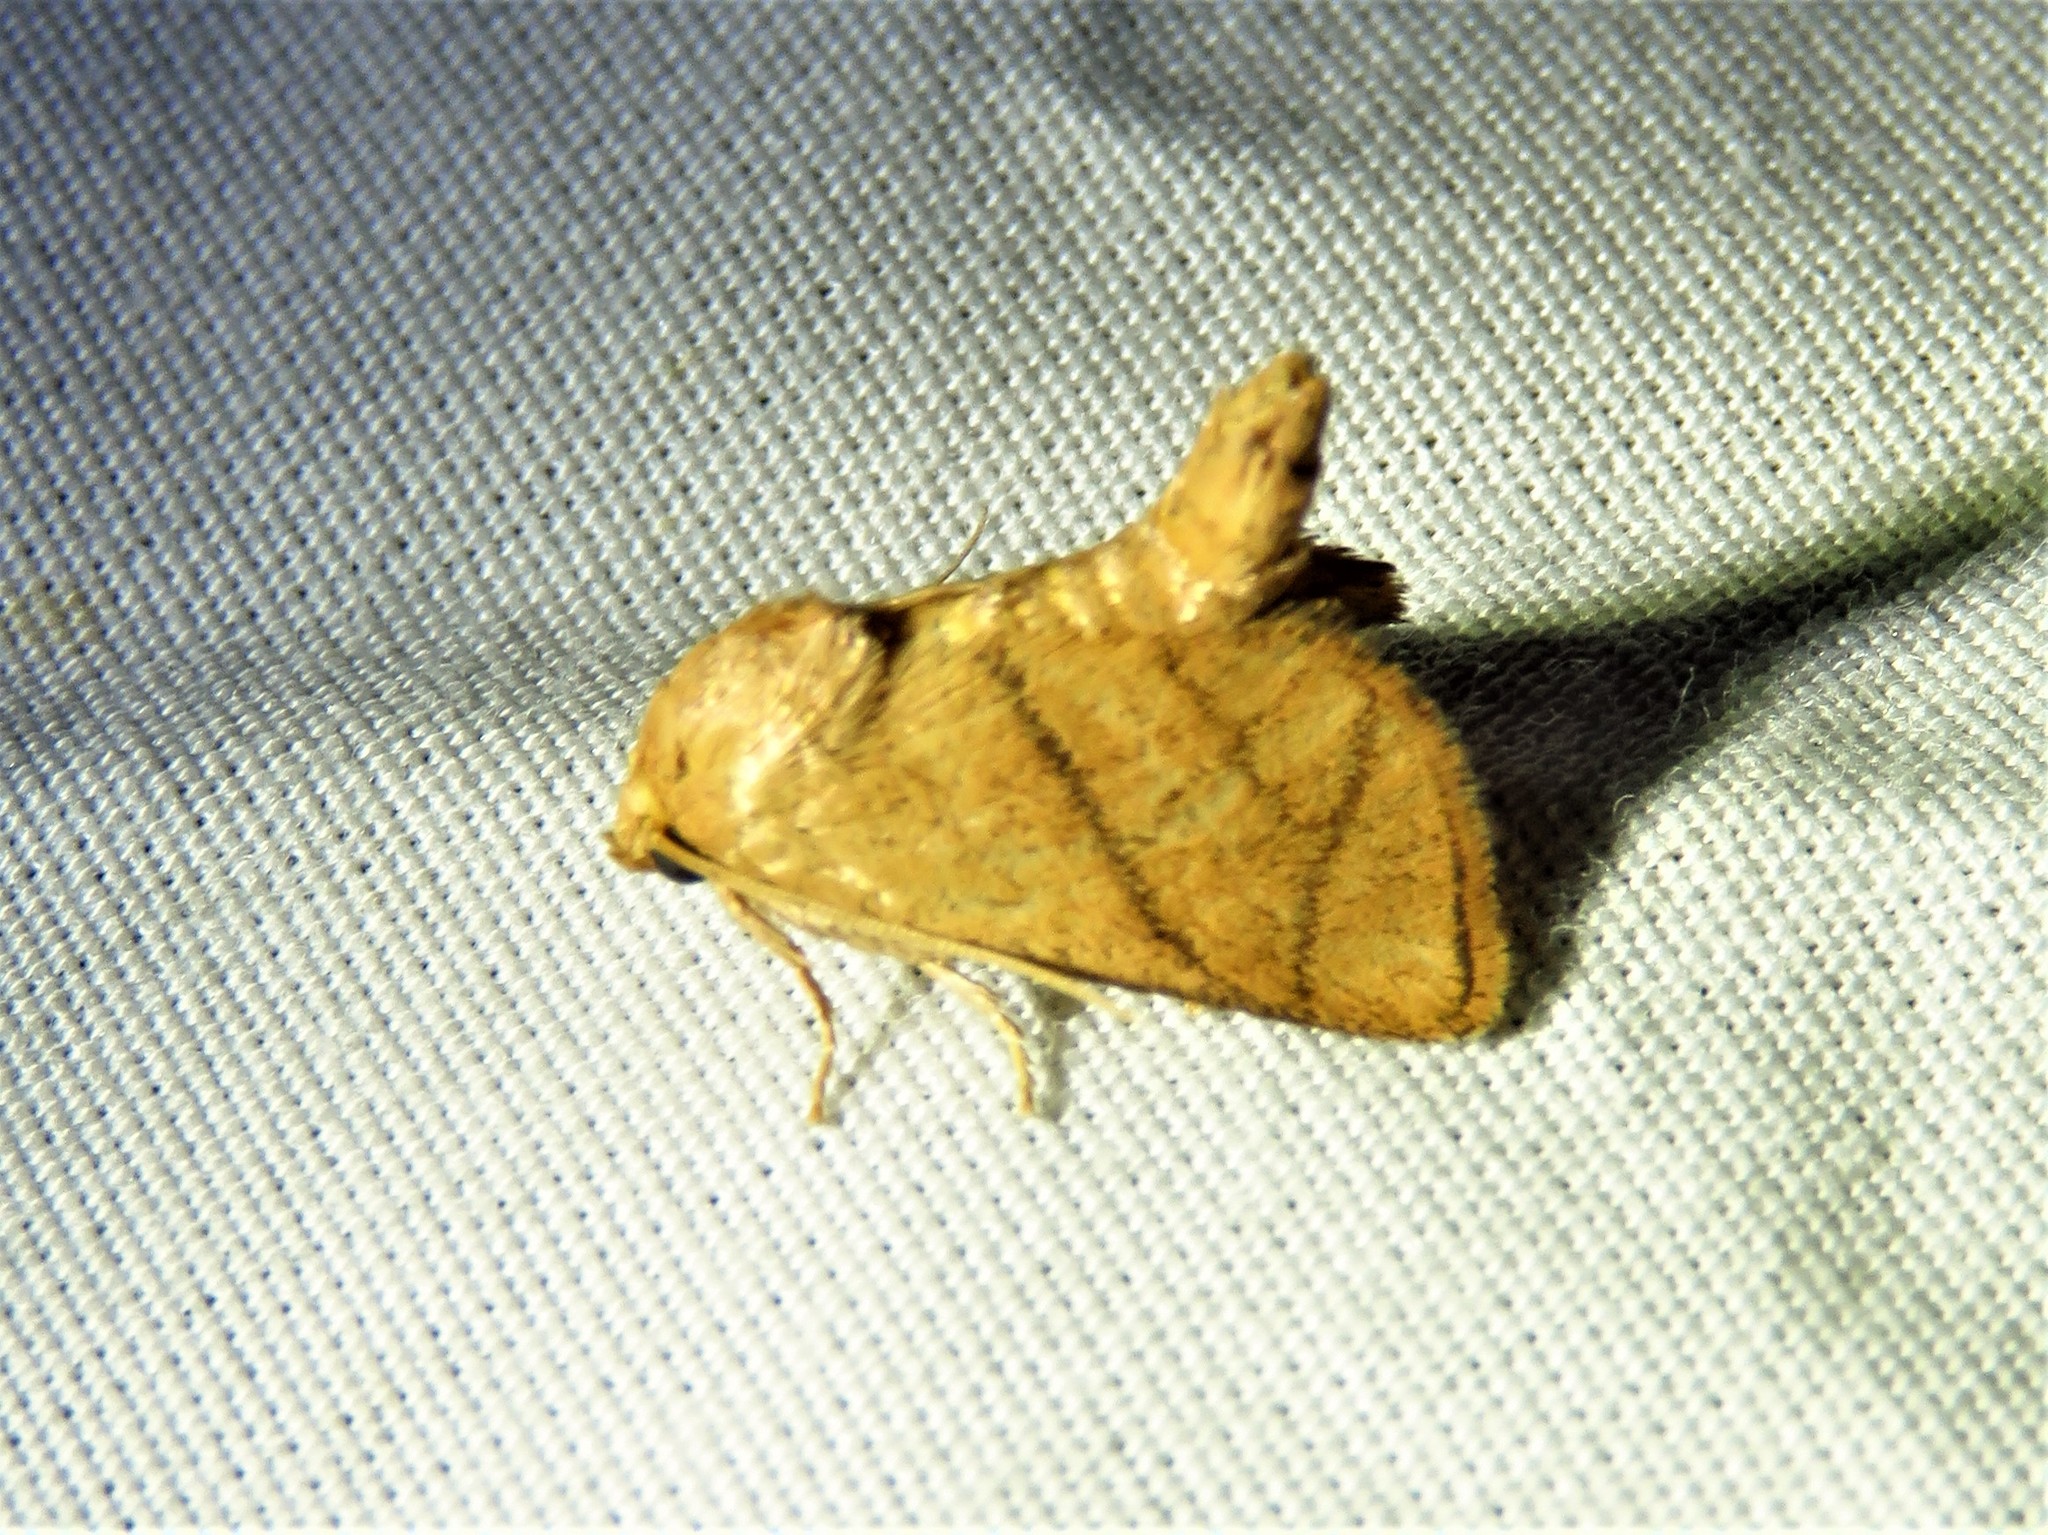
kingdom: Animalia
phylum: Arthropoda
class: Insecta
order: Lepidoptera
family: Limacodidae
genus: Apoda
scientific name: Apoda y-inversa
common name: Yellow-collared slug moth
